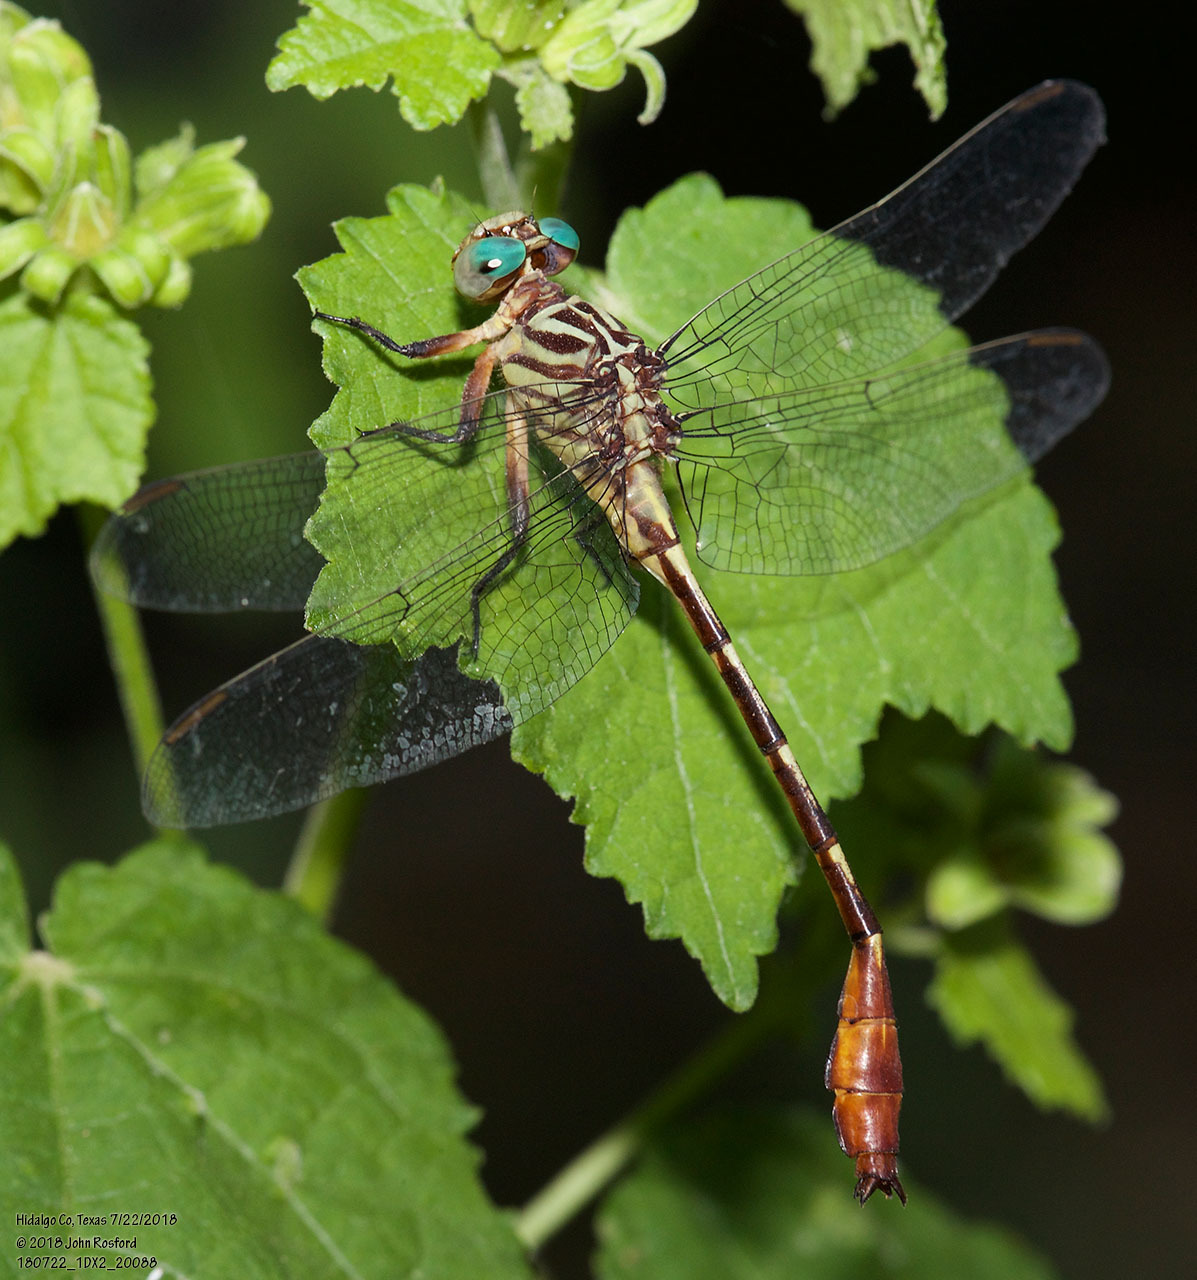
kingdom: Animalia
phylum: Arthropoda
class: Insecta
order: Odonata
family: Gomphidae
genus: Stylurus
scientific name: Stylurus plagiatus
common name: Russet-tipped clubtail
